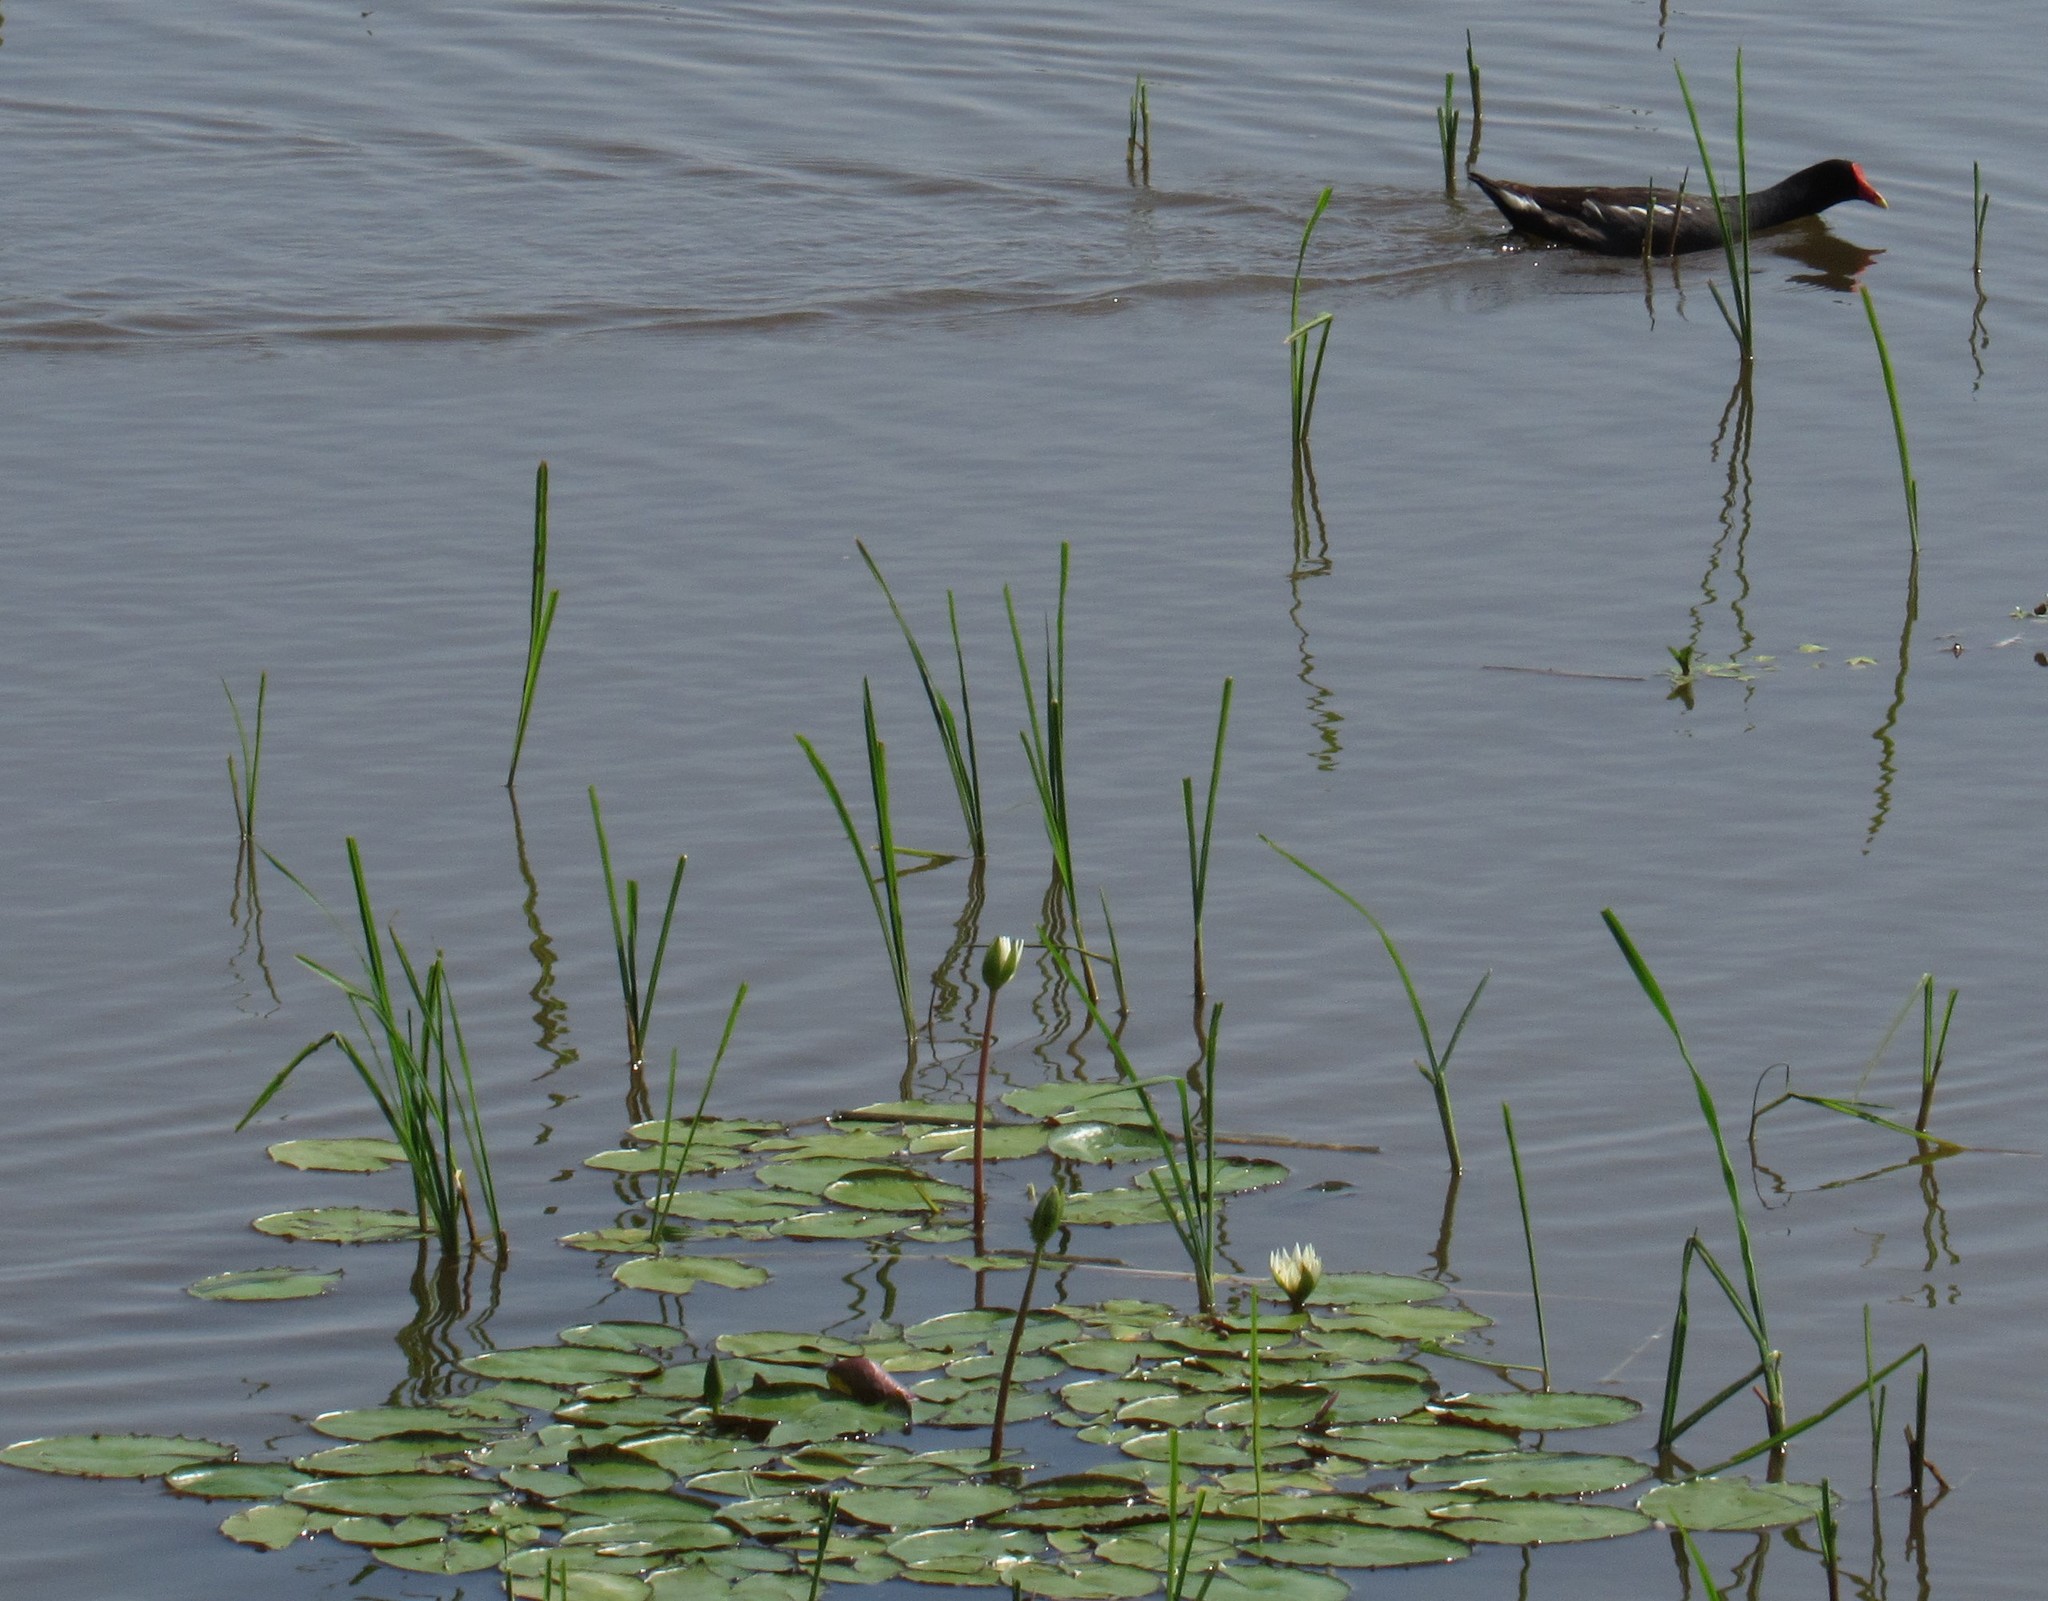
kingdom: Plantae
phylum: Tracheophyta
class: Magnoliopsida
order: Nymphaeales
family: Nymphaeaceae
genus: Nymphaea
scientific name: Nymphaea gracilis
